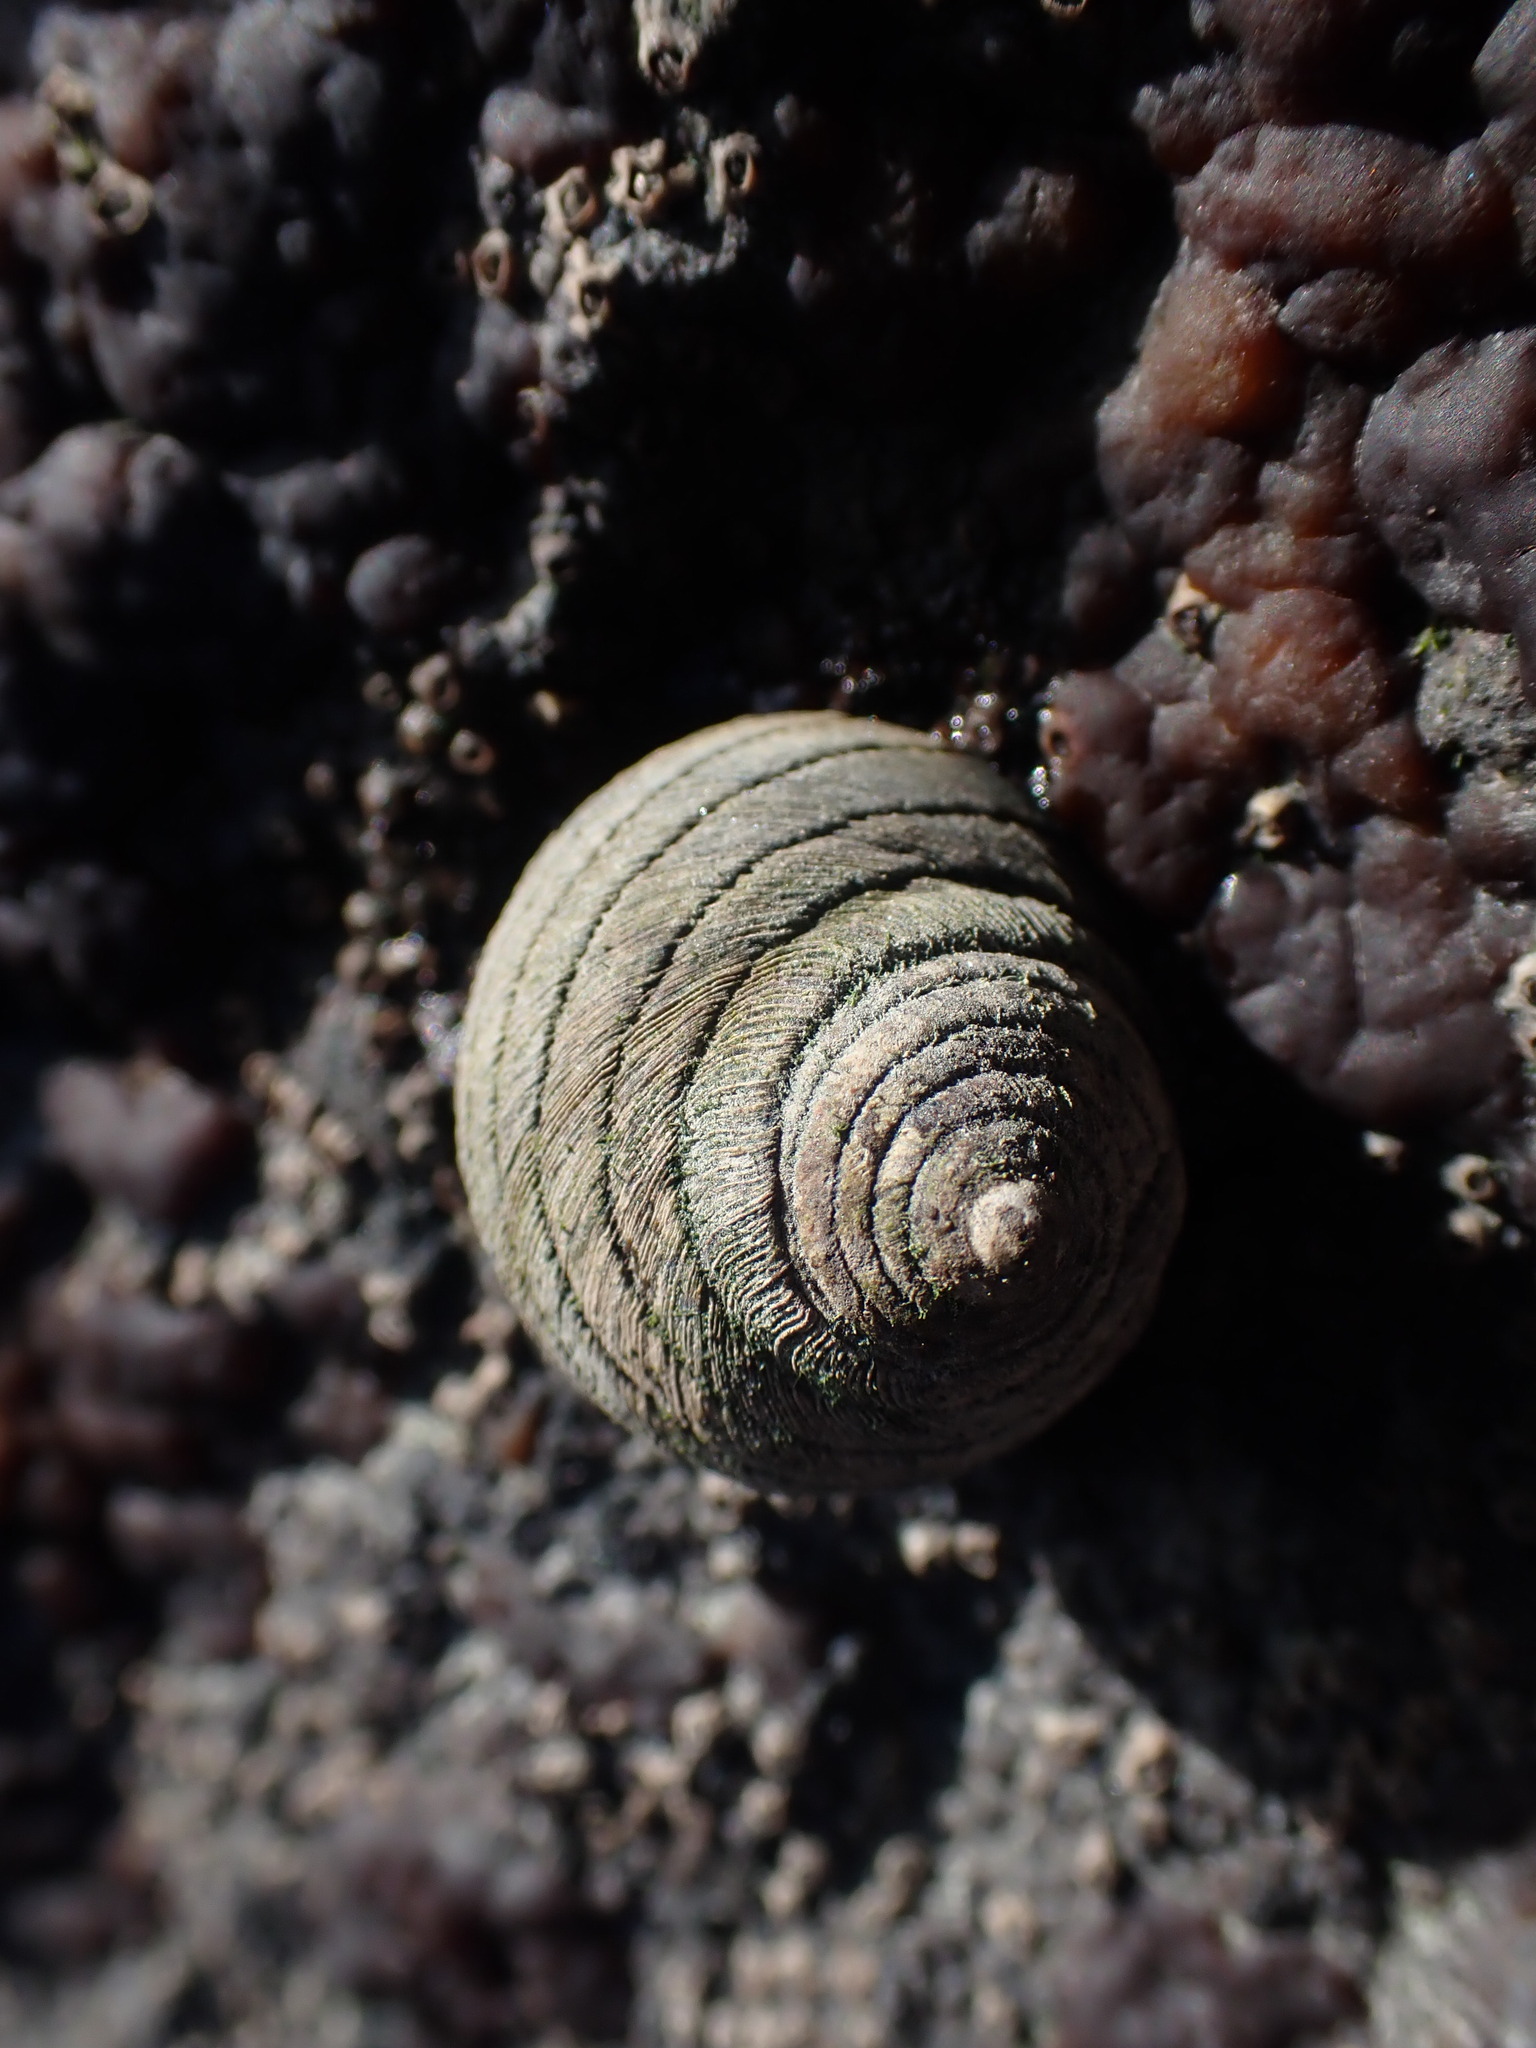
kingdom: Animalia
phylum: Mollusca
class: Gastropoda
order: Trochida
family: Trochidae
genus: Diloma
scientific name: Diloma aethiops
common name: Scorched monodont
